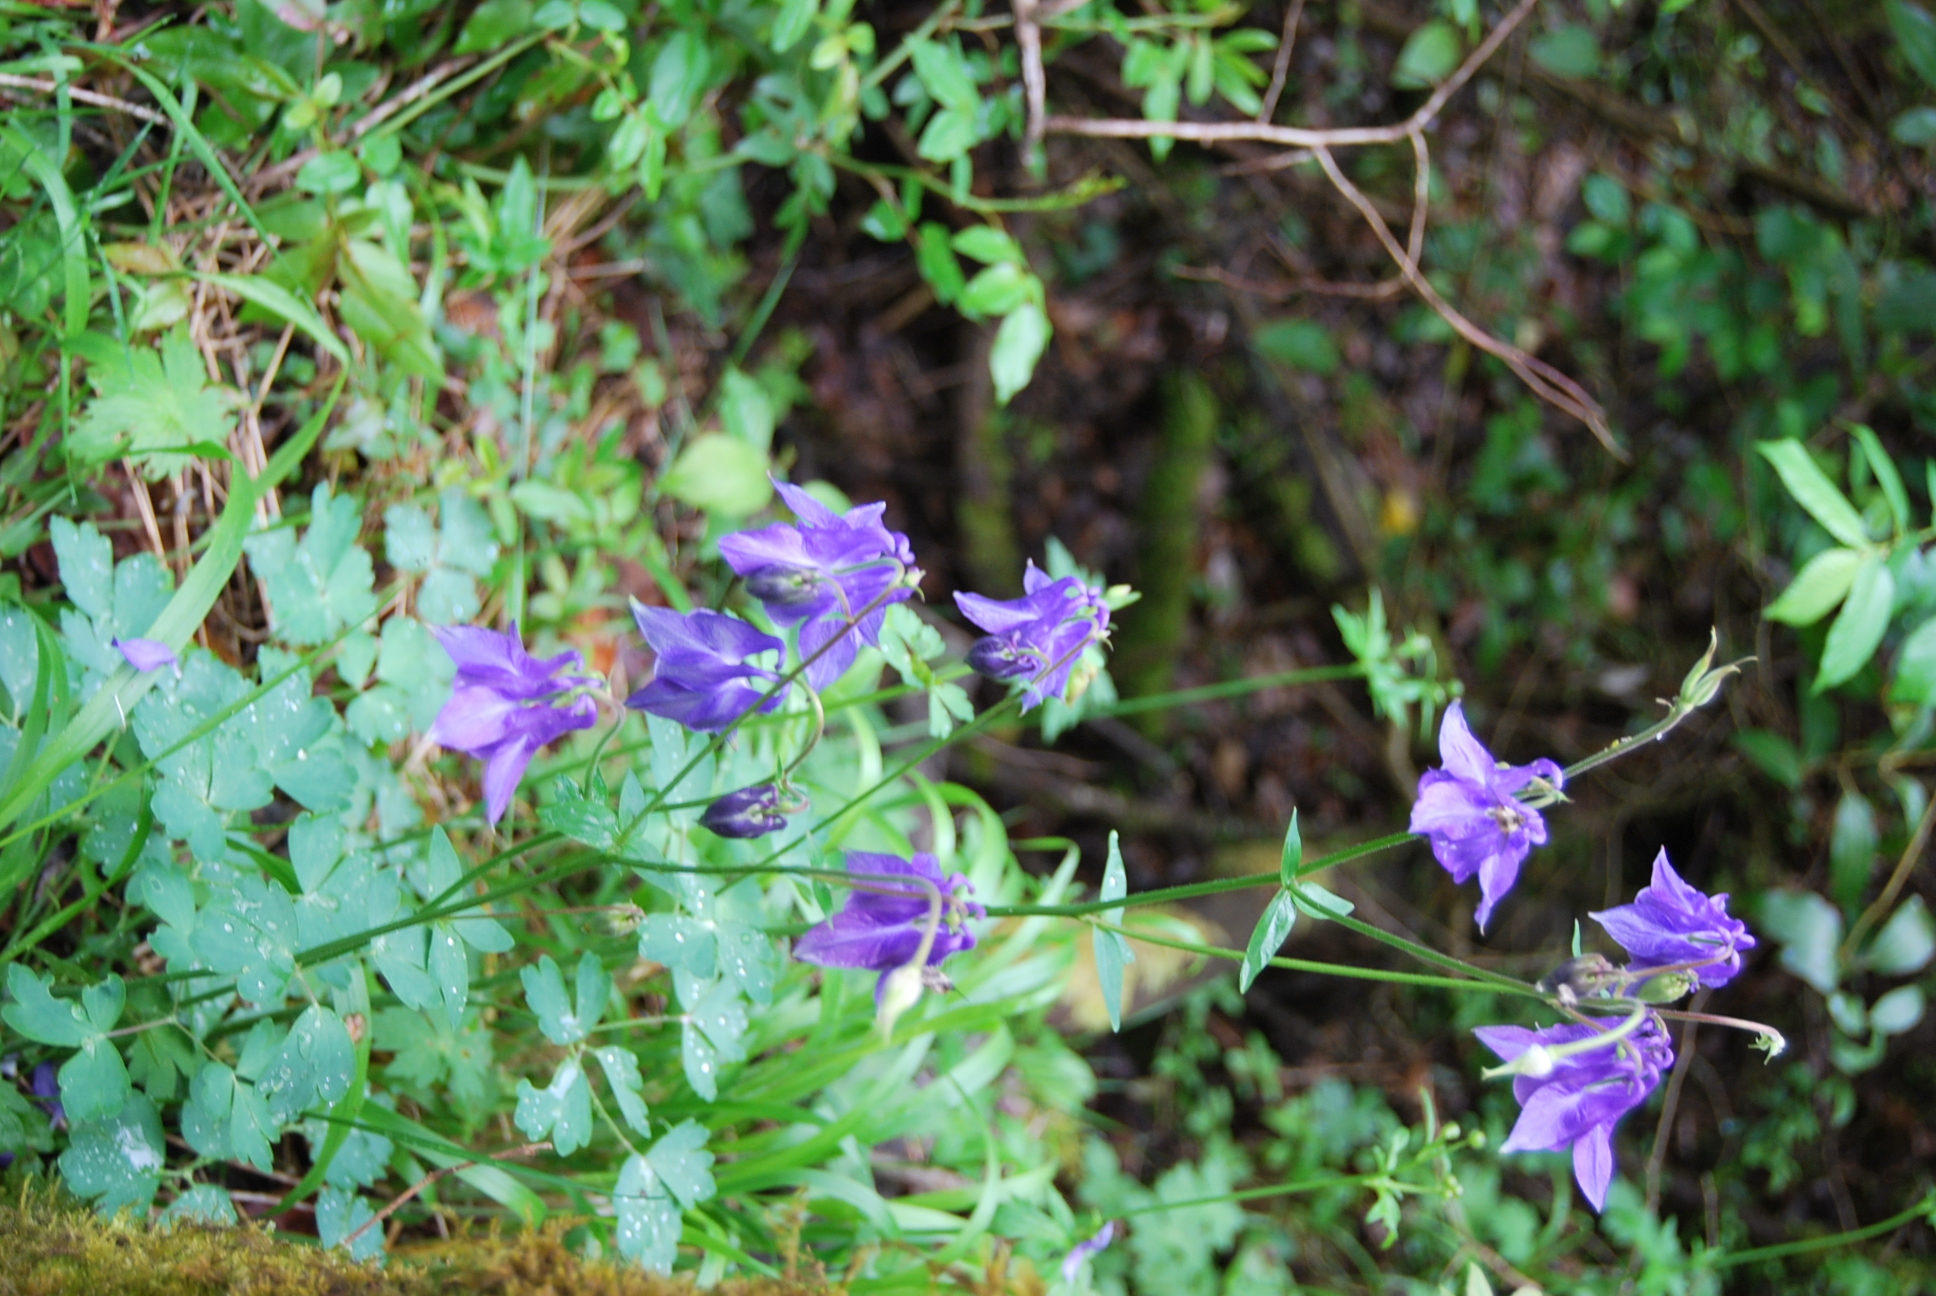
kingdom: Plantae
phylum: Tracheophyta
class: Magnoliopsida
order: Ranunculales
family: Ranunculaceae
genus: Aquilegia
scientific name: Aquilegia vulgaris
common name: Columbine
